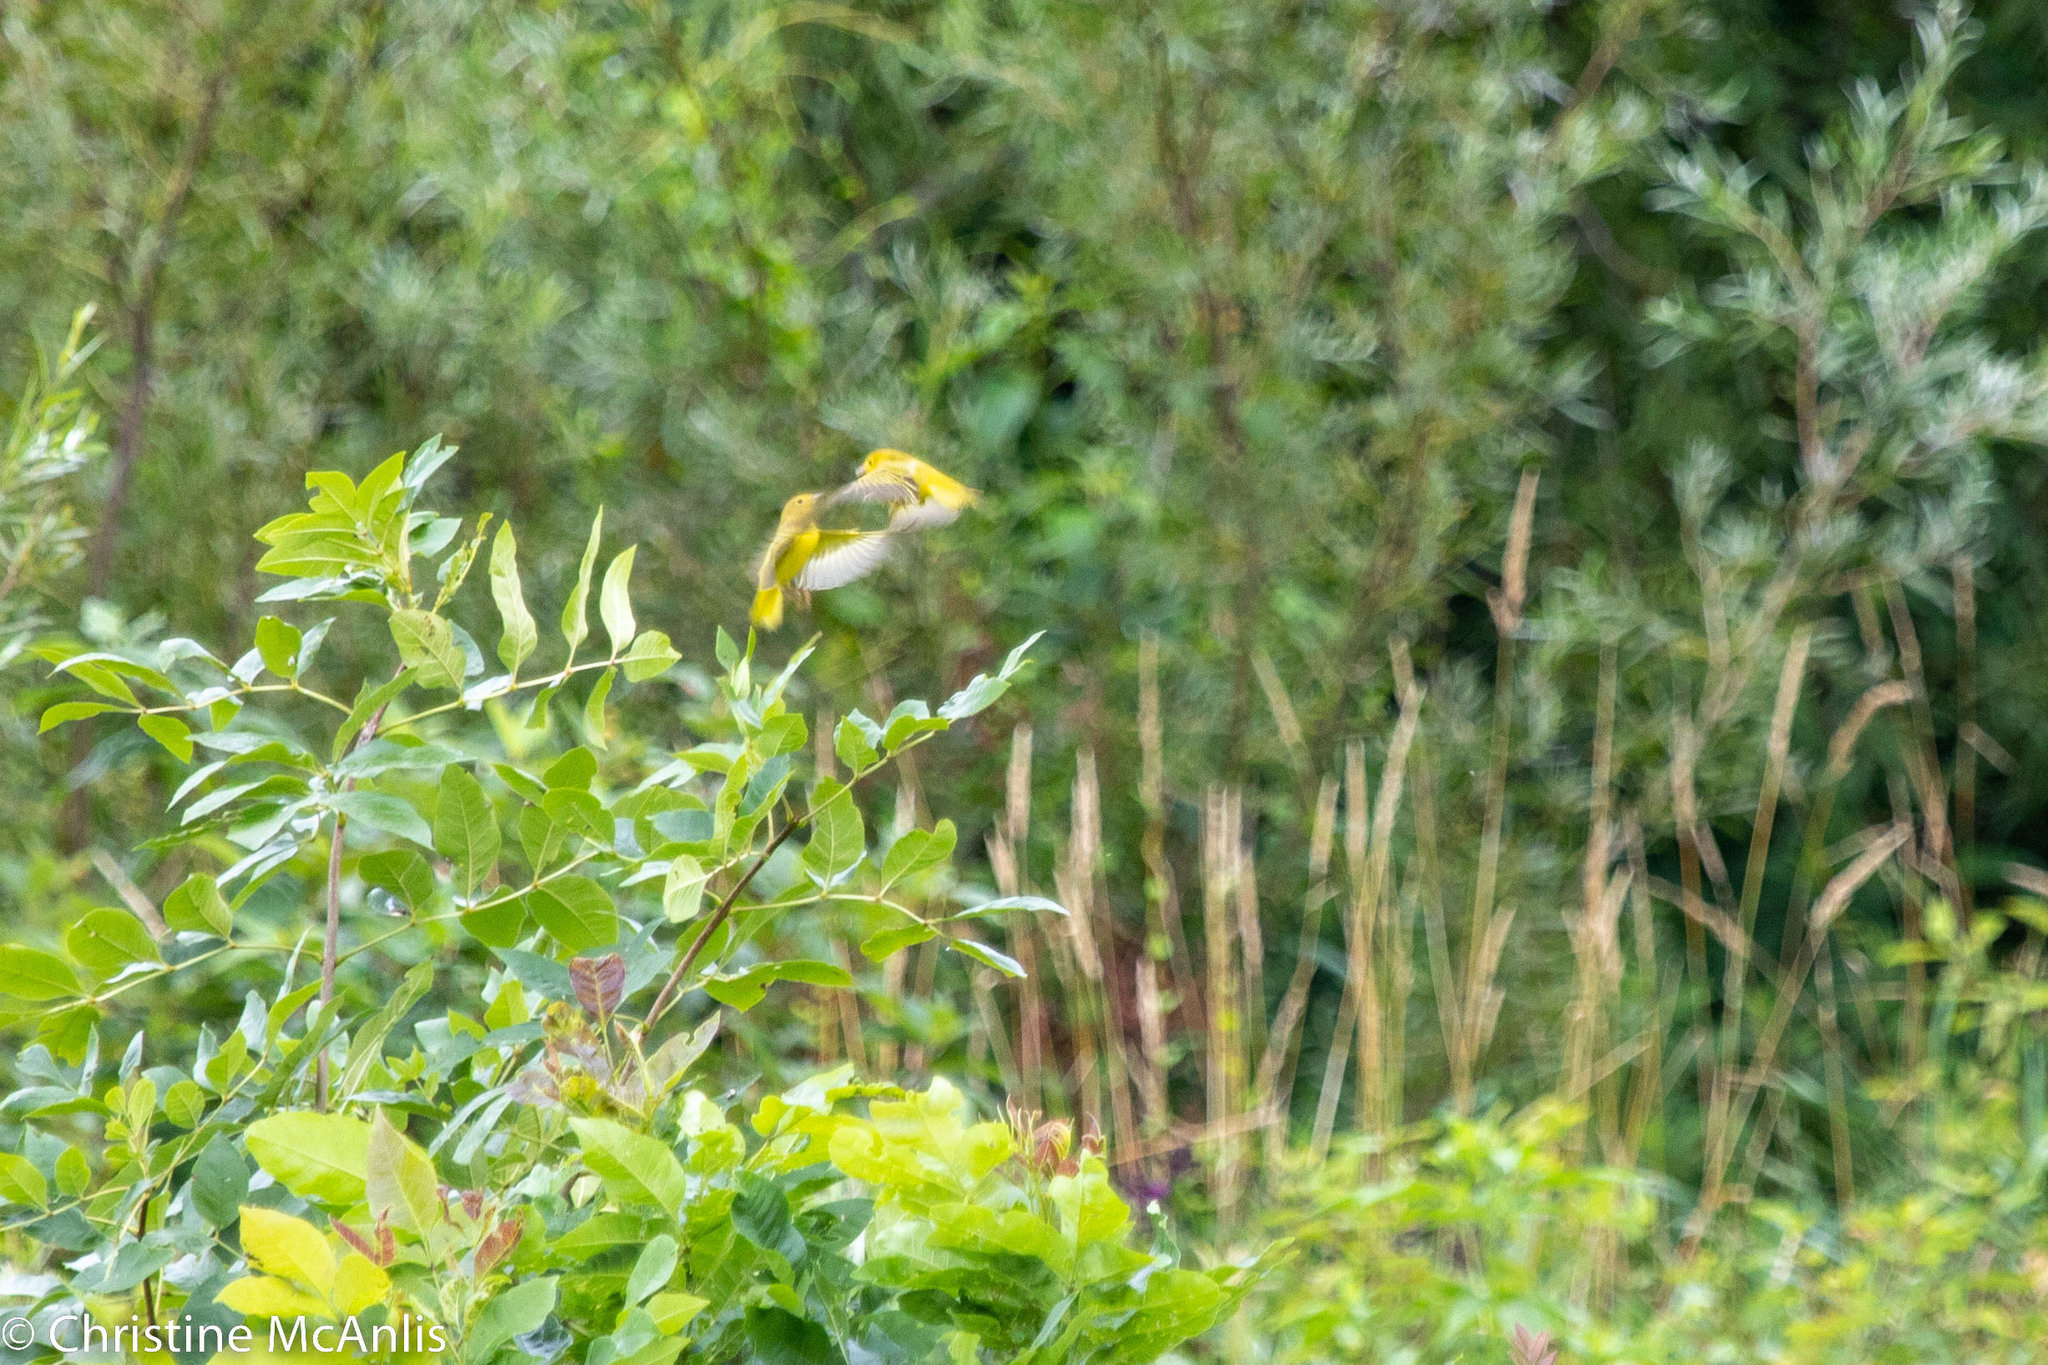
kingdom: Animalia
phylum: Chordata
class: Aves
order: Passeriformes
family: Parulidae
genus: Setophaga
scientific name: Setophaga petechia
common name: Yellow warbler
